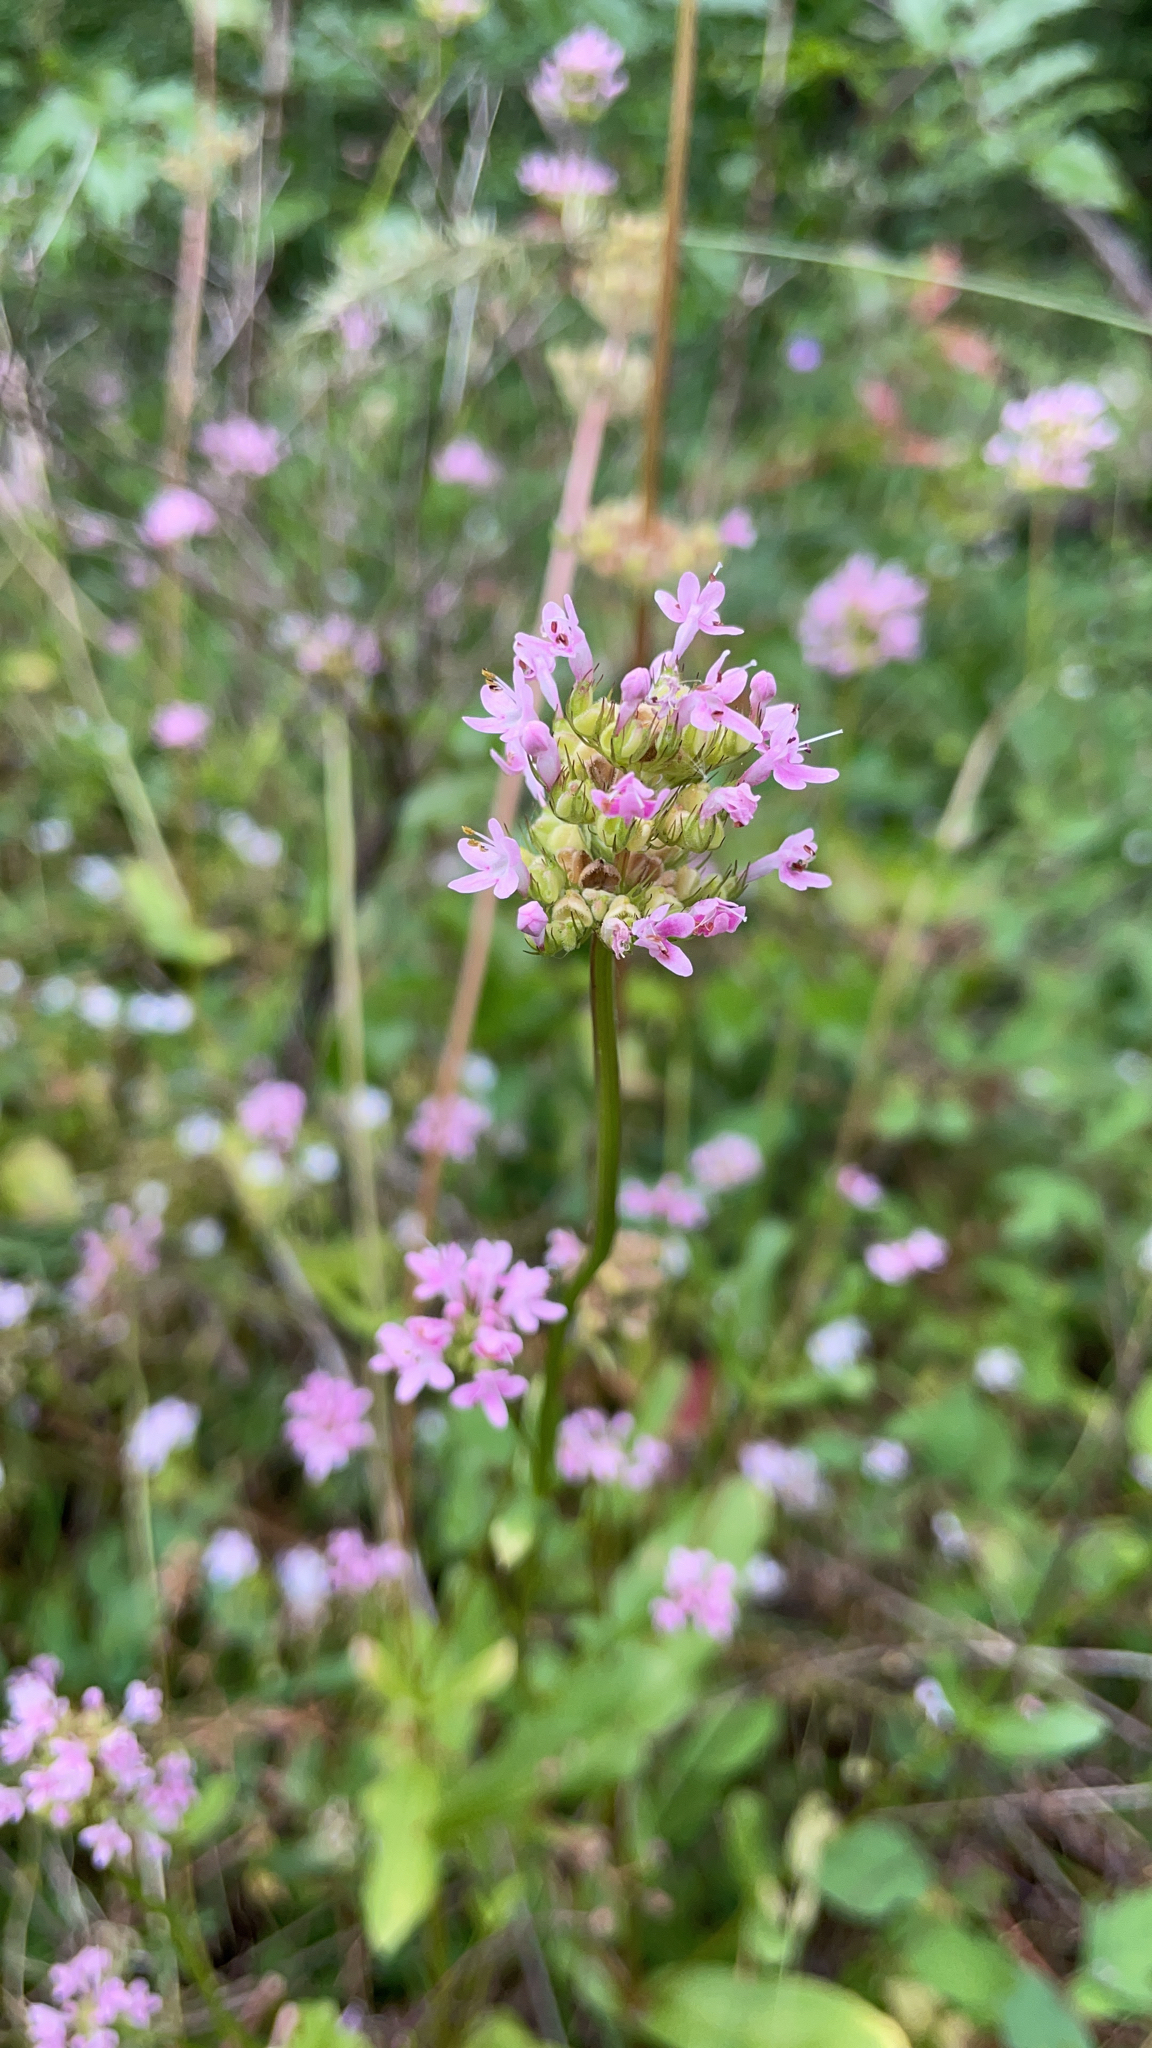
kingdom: Plantae
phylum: Tracheophyta
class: Magnoliopsida
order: Dipsacales
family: Caprifoliaceae
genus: Plectritis
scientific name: Plectritis congesta
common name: Pink plectritis
